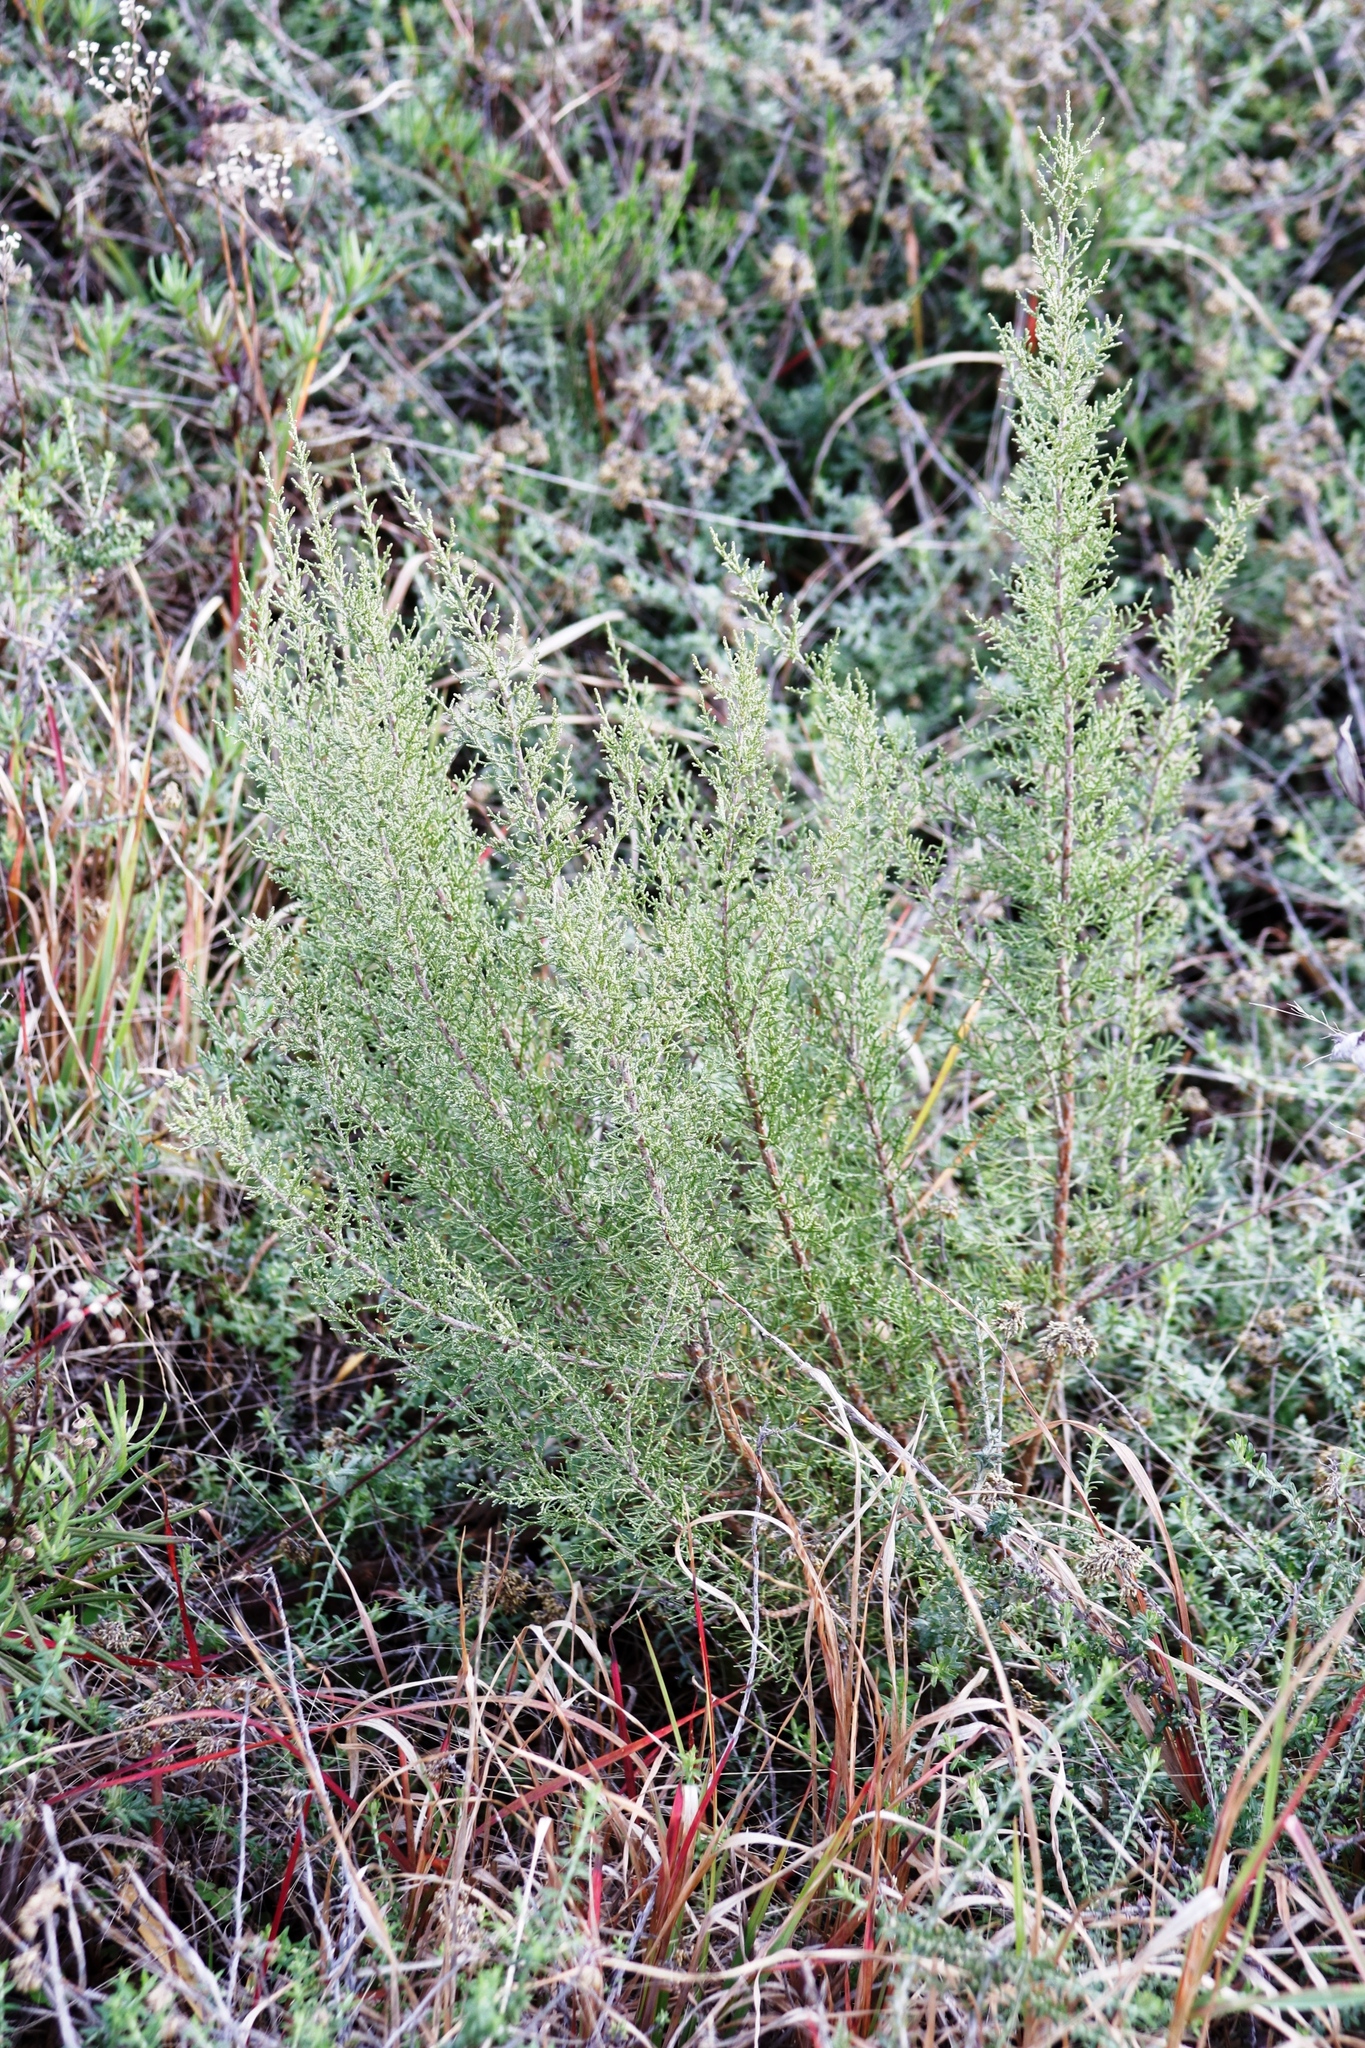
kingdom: Plantae
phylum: Tracheophyta
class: Magnoliopsida
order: Asterales
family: Asteraceae
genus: Dicerothamnus
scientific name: Dicerothamnus rhinocerotis
